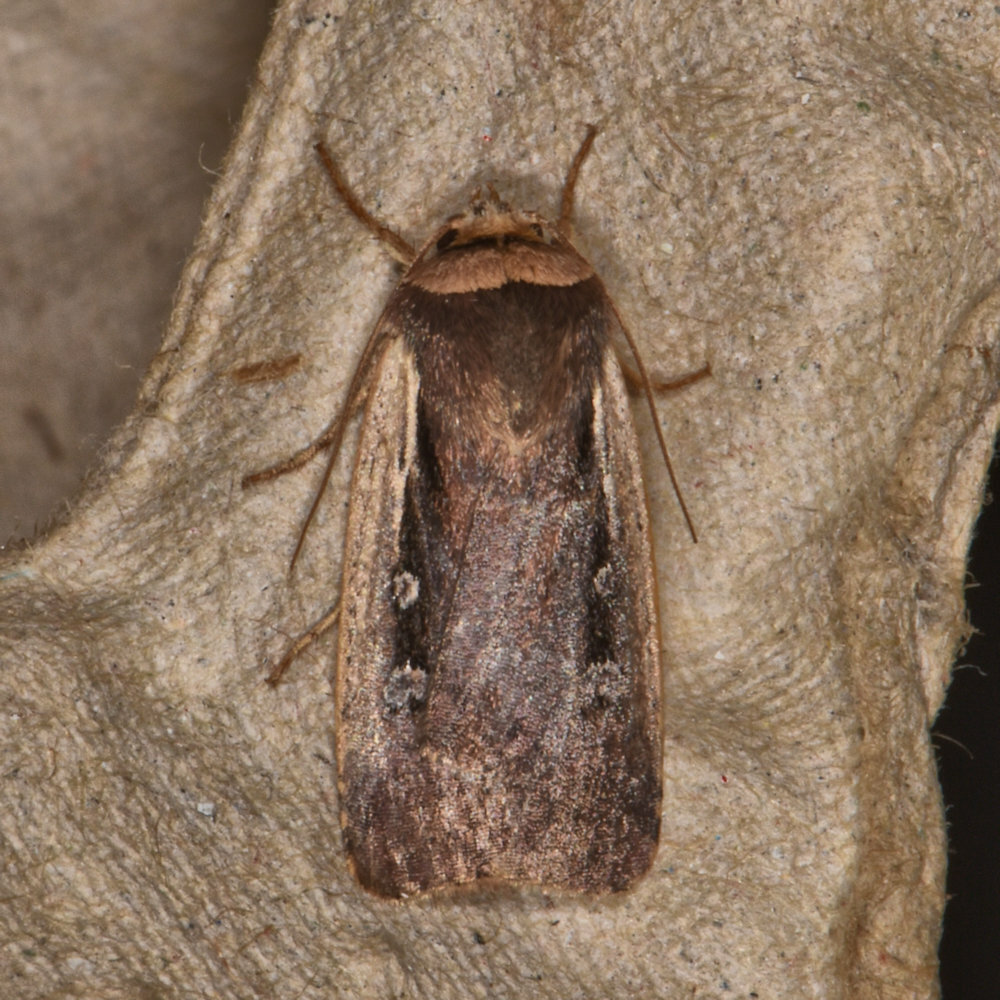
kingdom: Animalia
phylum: Arthropoda
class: Insecta
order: Lepidoptera
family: Noctuidae
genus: Ochropleura
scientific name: Ochropleura implecta
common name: Flame-shouldered dart
